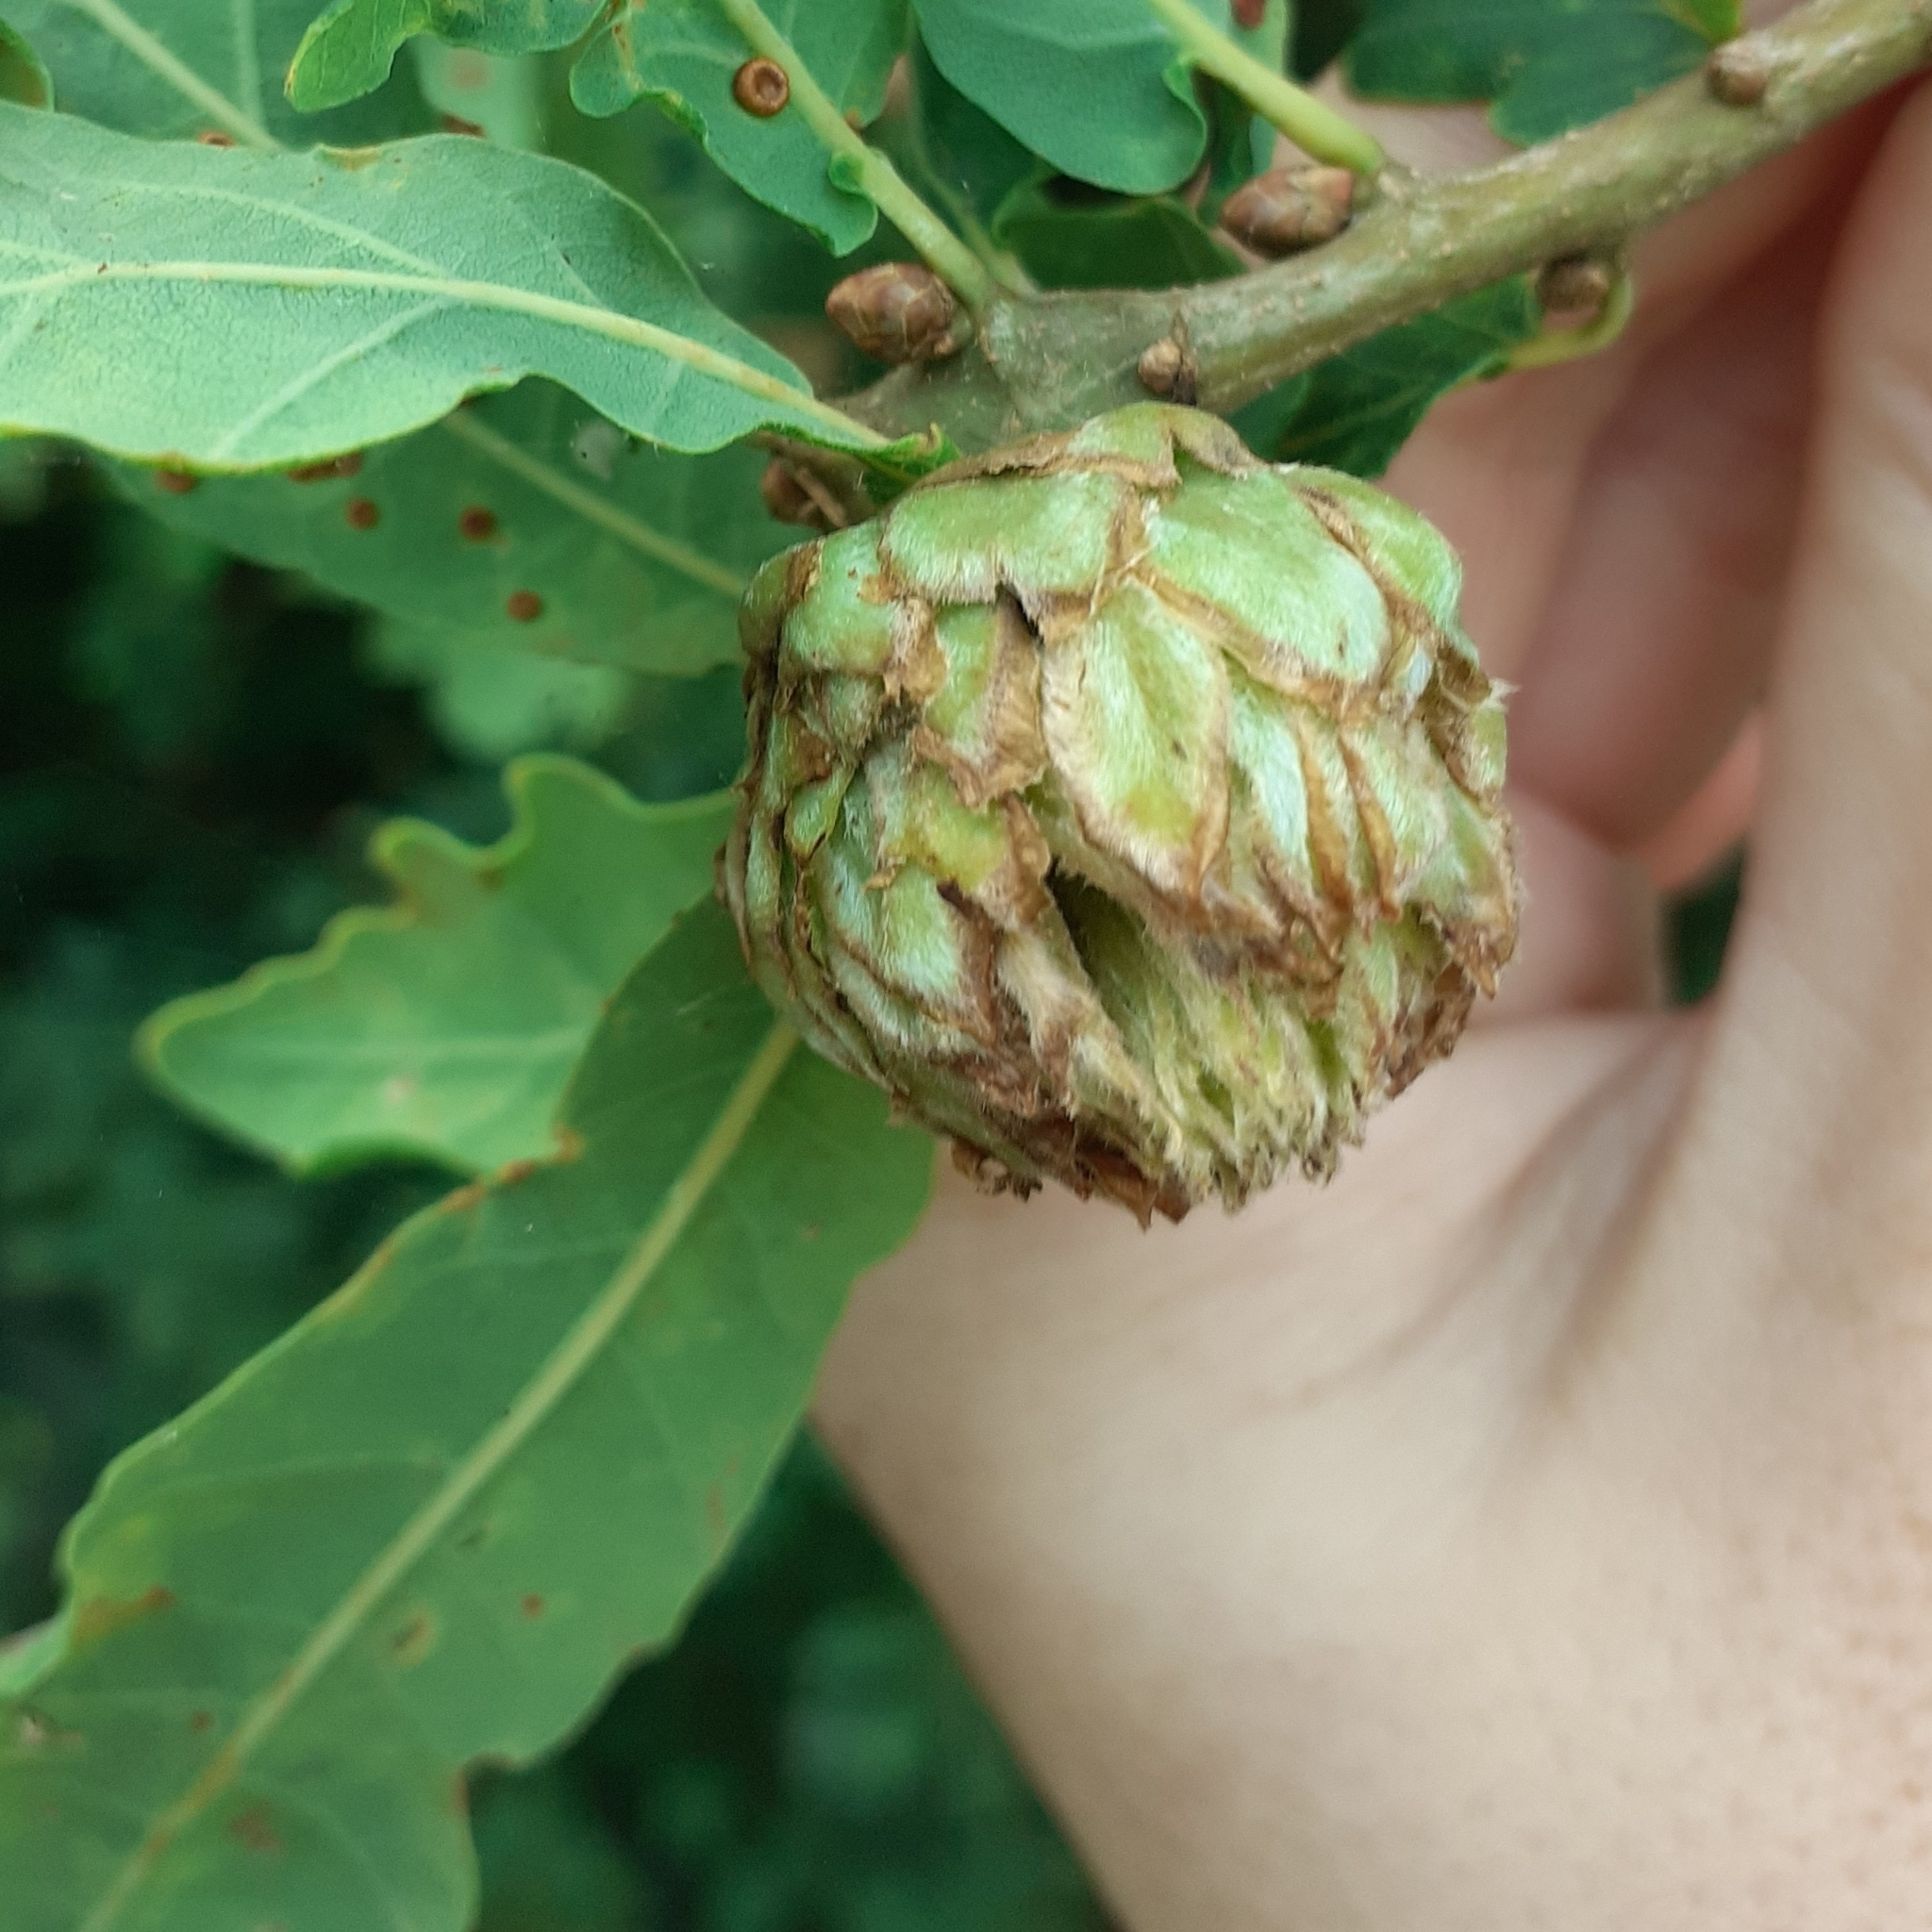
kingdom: Animalia
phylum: Arthropoda
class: Insecta
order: Hymenoptera
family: Cynipidae
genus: Andricus
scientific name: Andricus foecundatrix
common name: Artichoke gall
